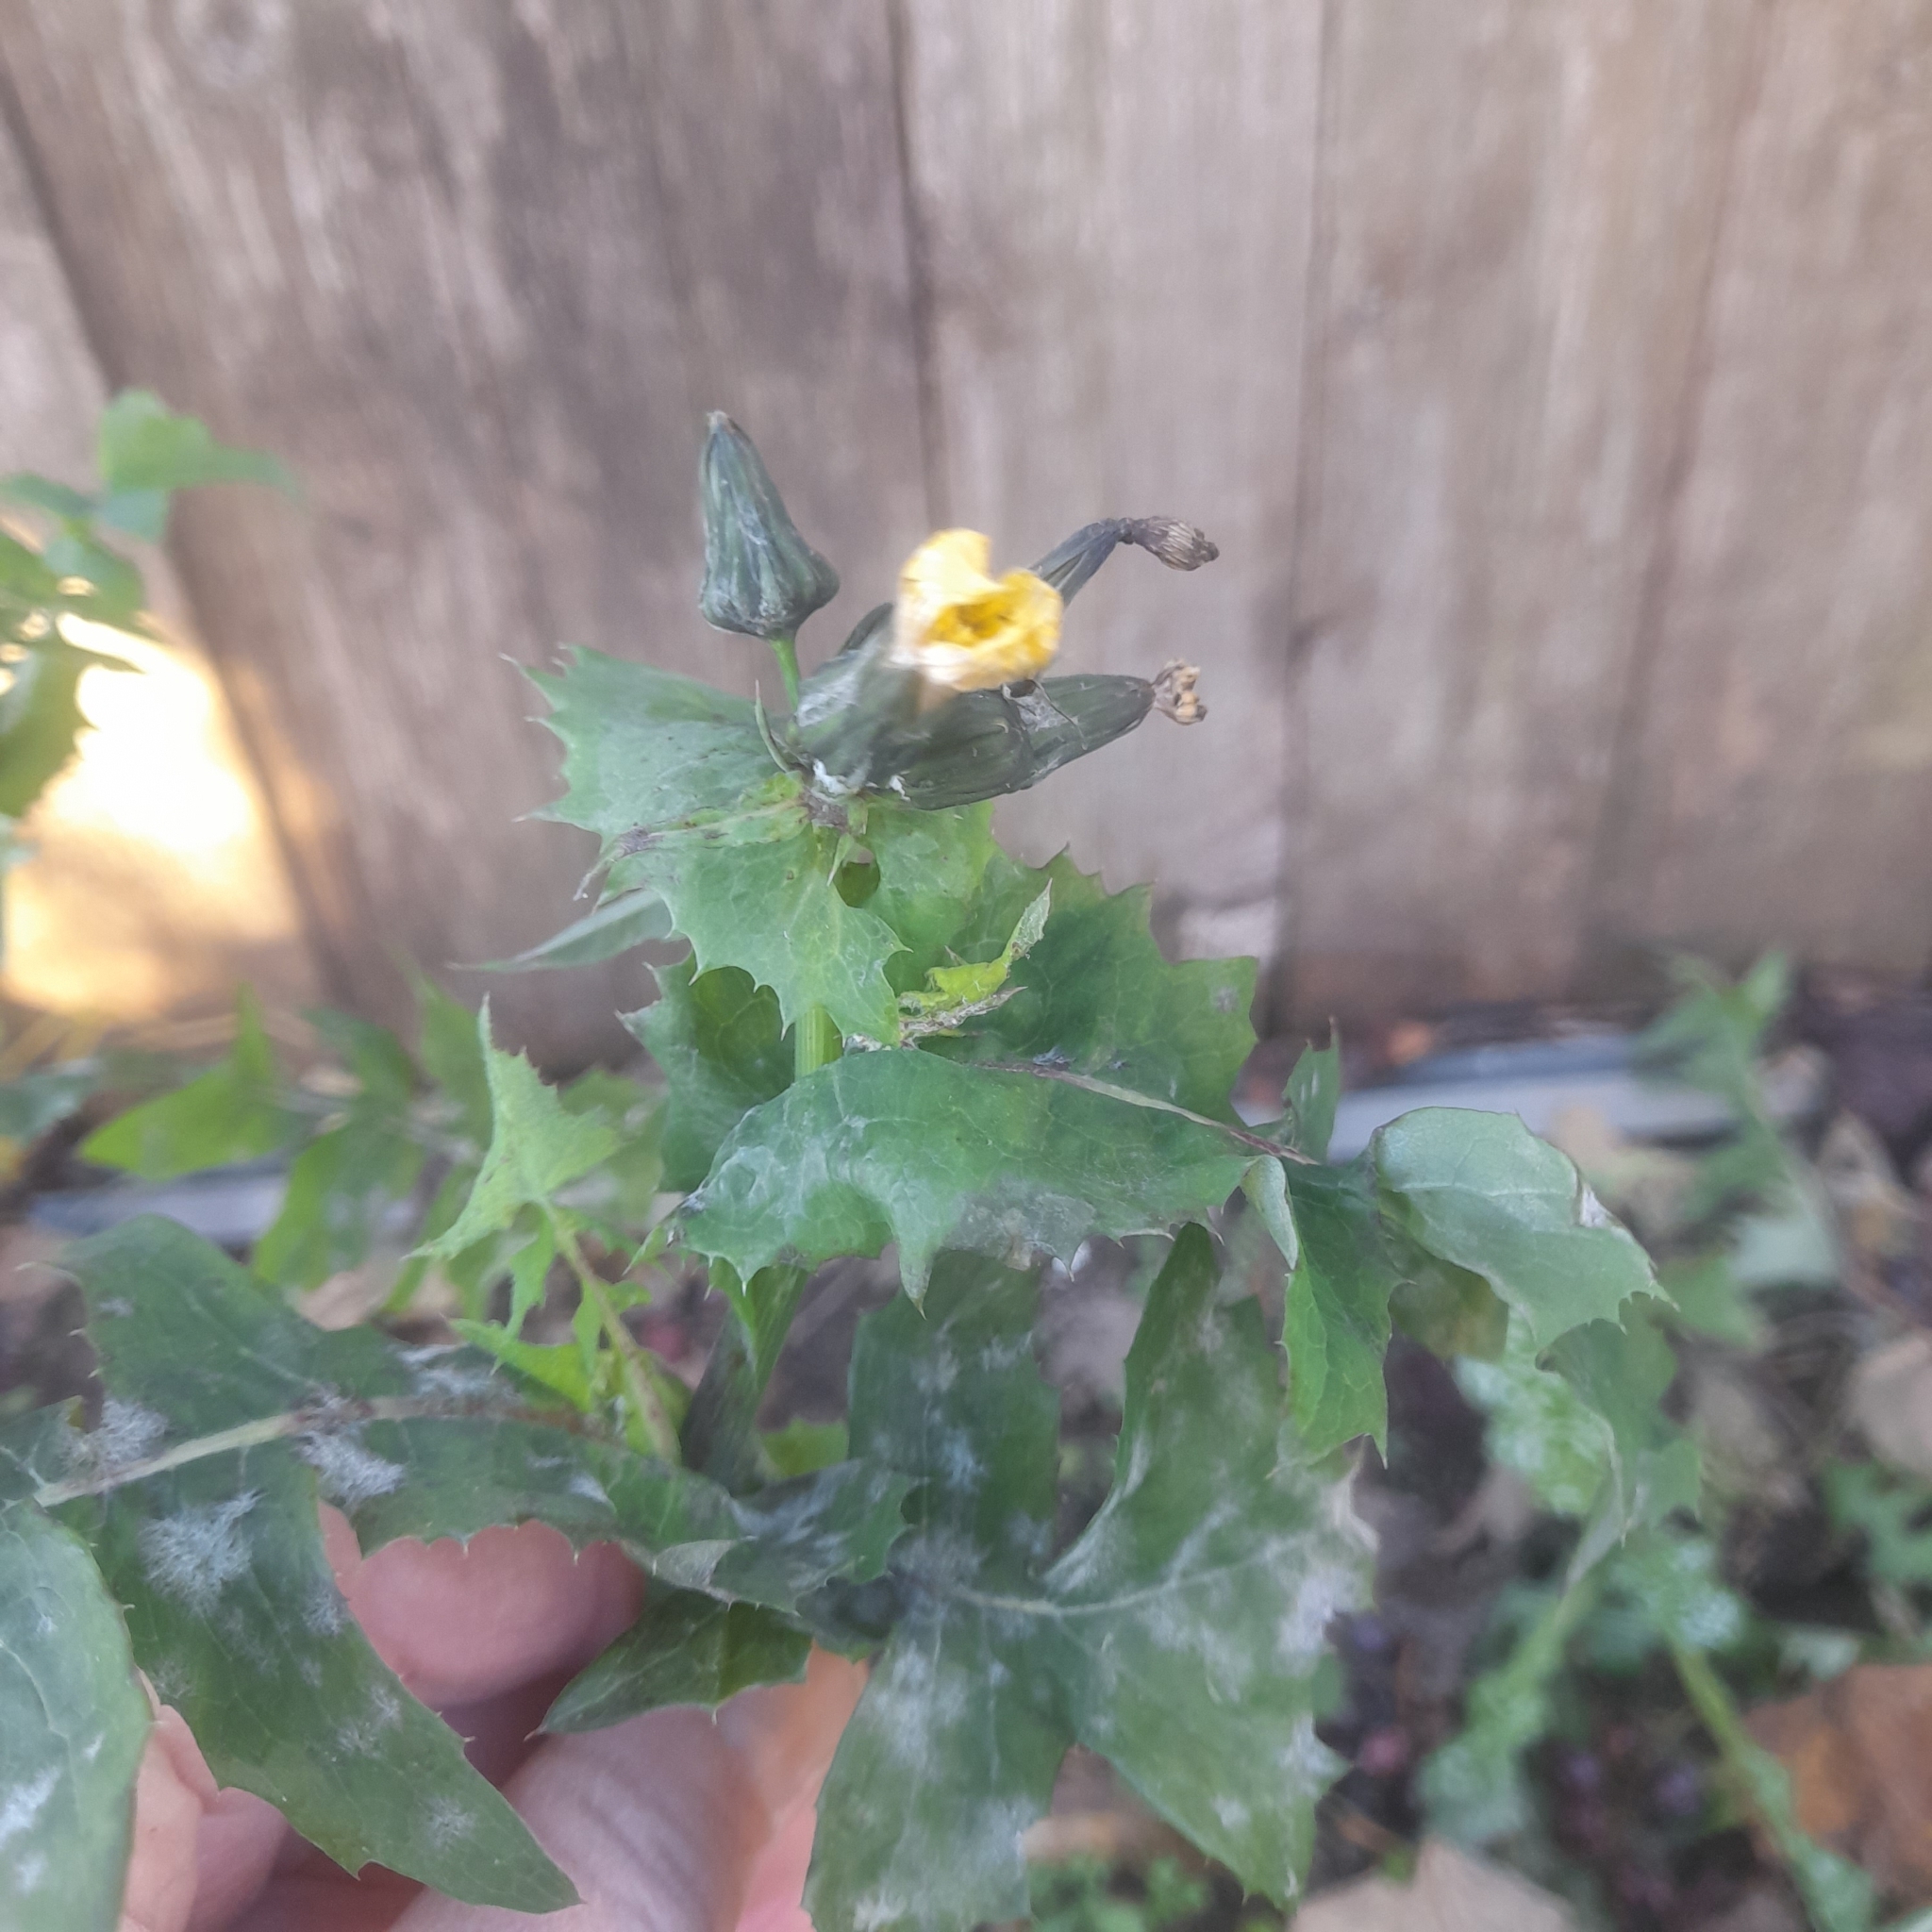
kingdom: Plantae
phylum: Tracheophyta
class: Magnoliopsida
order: Asterales
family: Asteraceae
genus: Sonchus
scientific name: Sonchus oleraceus
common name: Common sowthistle
